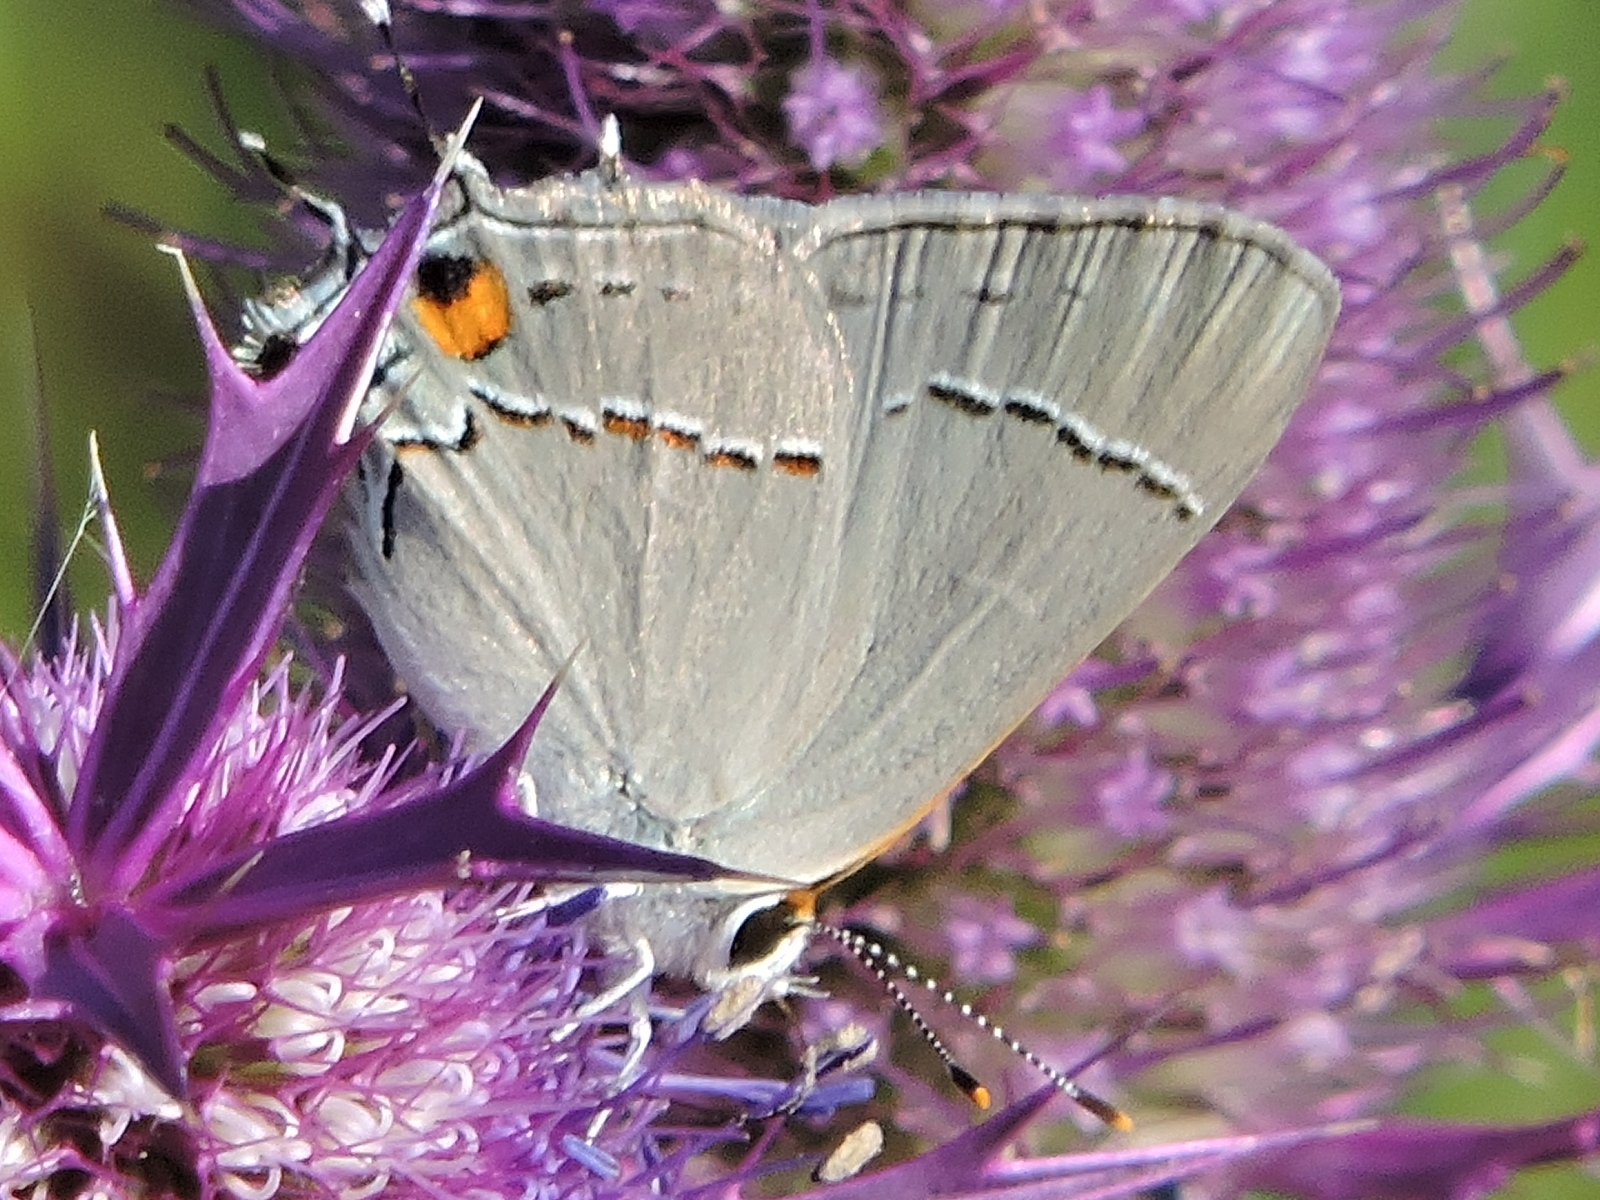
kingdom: Animalia
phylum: Arthropoda
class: Insecta
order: Lepidoptera
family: Lycaenidae
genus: Strymon
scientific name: Strymon melinus
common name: Gray hairstreak
